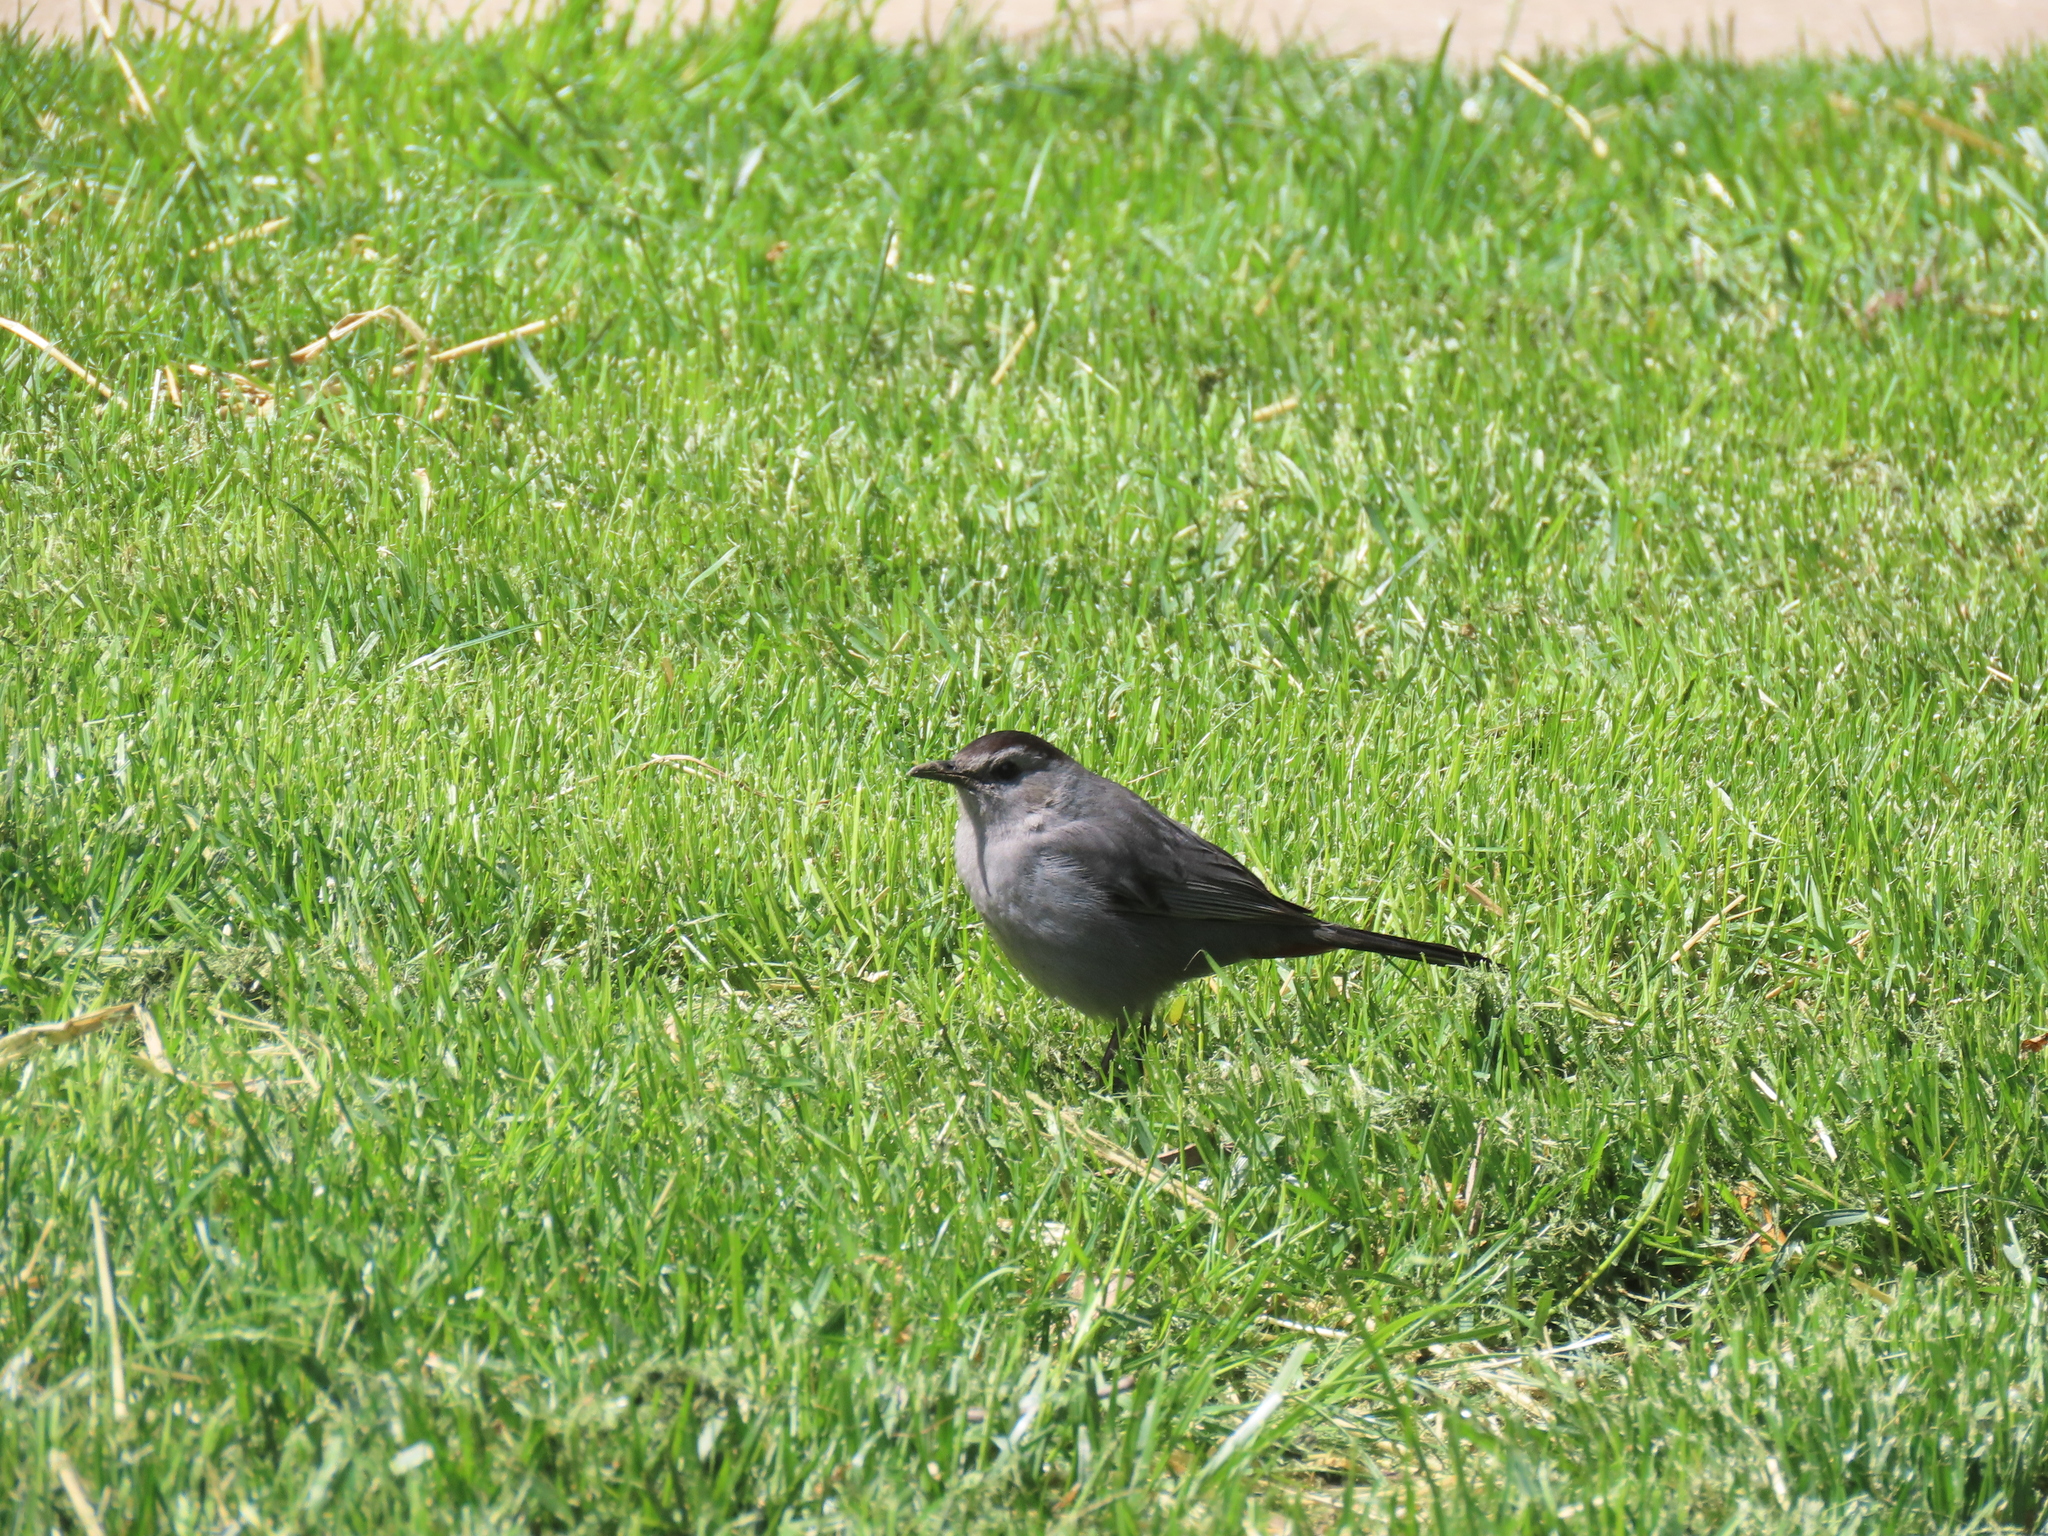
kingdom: Animalia
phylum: Chordata
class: Aves
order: Passeriformes
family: Mimidae
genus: Dumetella
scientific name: Dumetella carolinensis
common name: Gray catbird
